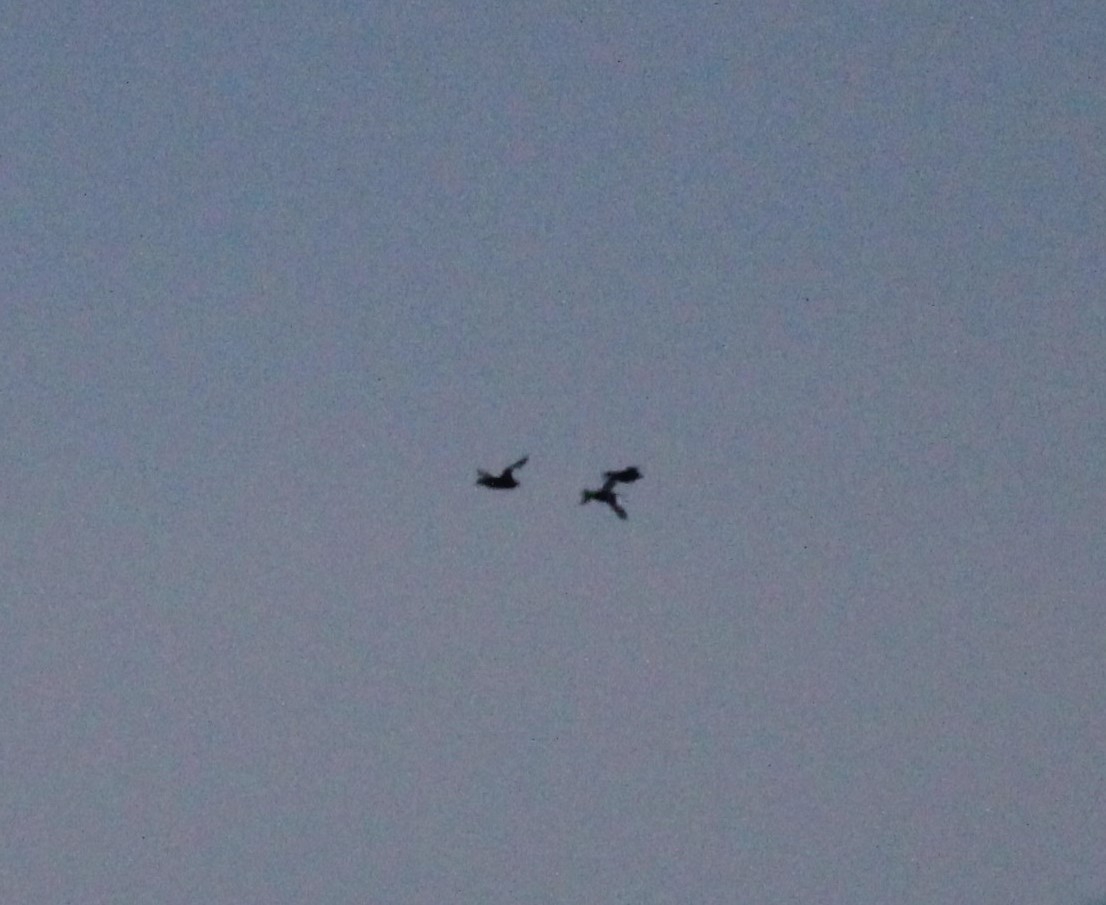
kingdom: Animalia
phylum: Chordata
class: Aves
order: Anseriformes
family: Anatidae
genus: Melanitta
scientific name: Melanitta deglandi
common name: White-winged scoter
